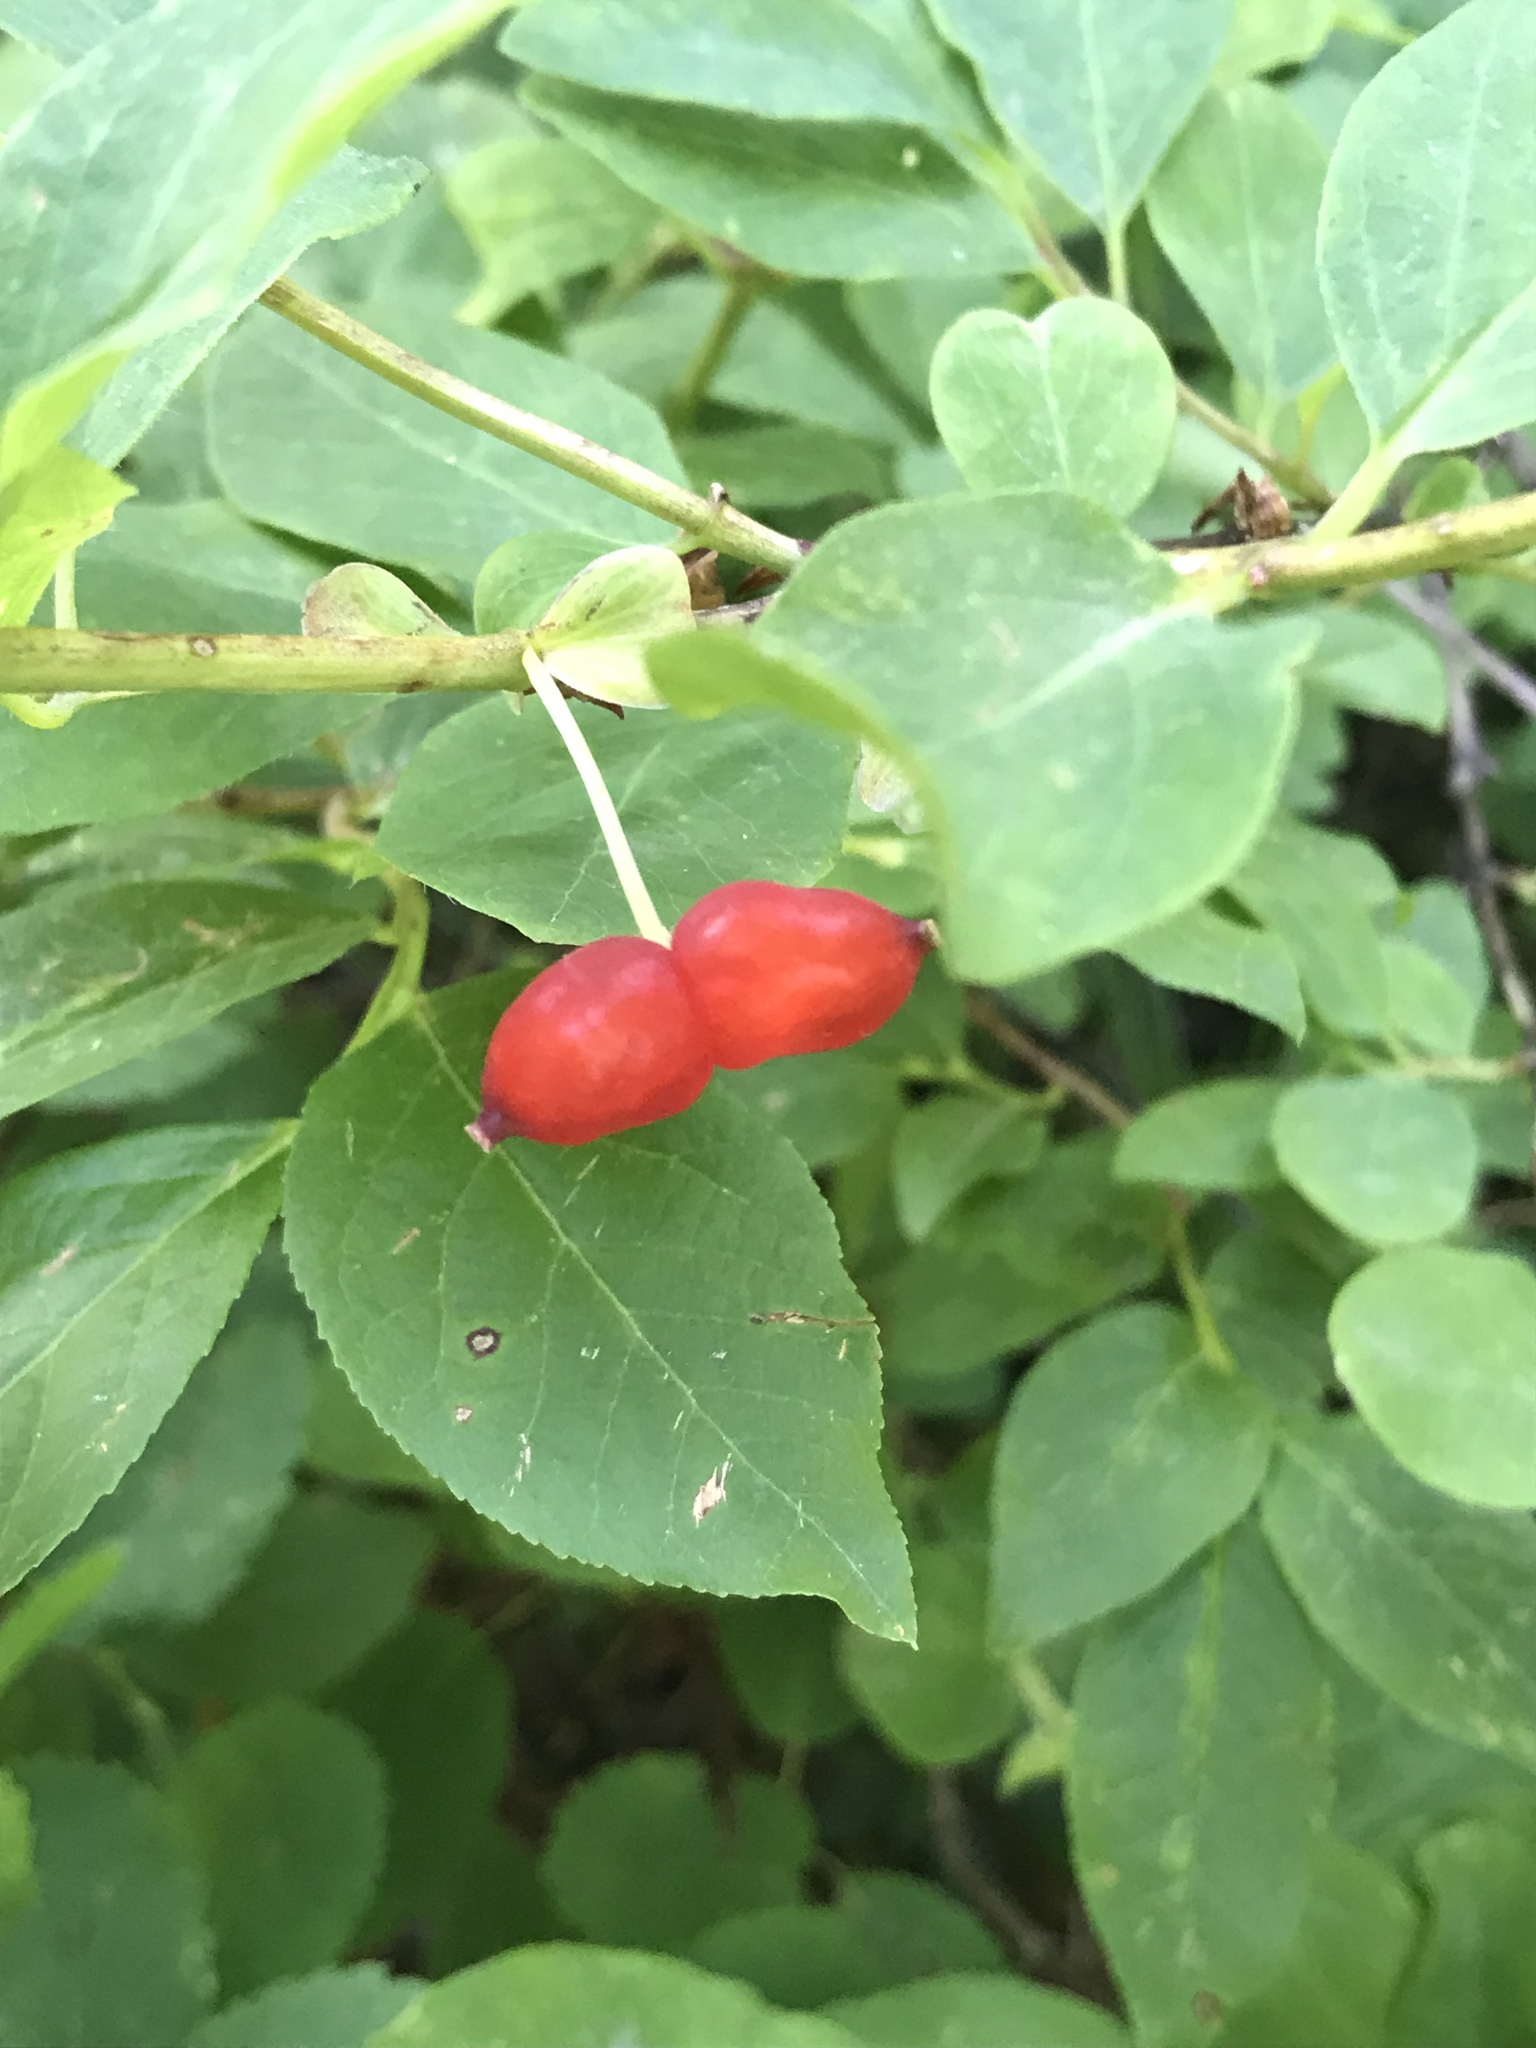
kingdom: Plantae
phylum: Tracheophyta
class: Magnoliopsida
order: Dipsacales
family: Caprifoliaceae
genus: Lonicera
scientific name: Lonicera utahensis
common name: Utah honeysuckle
